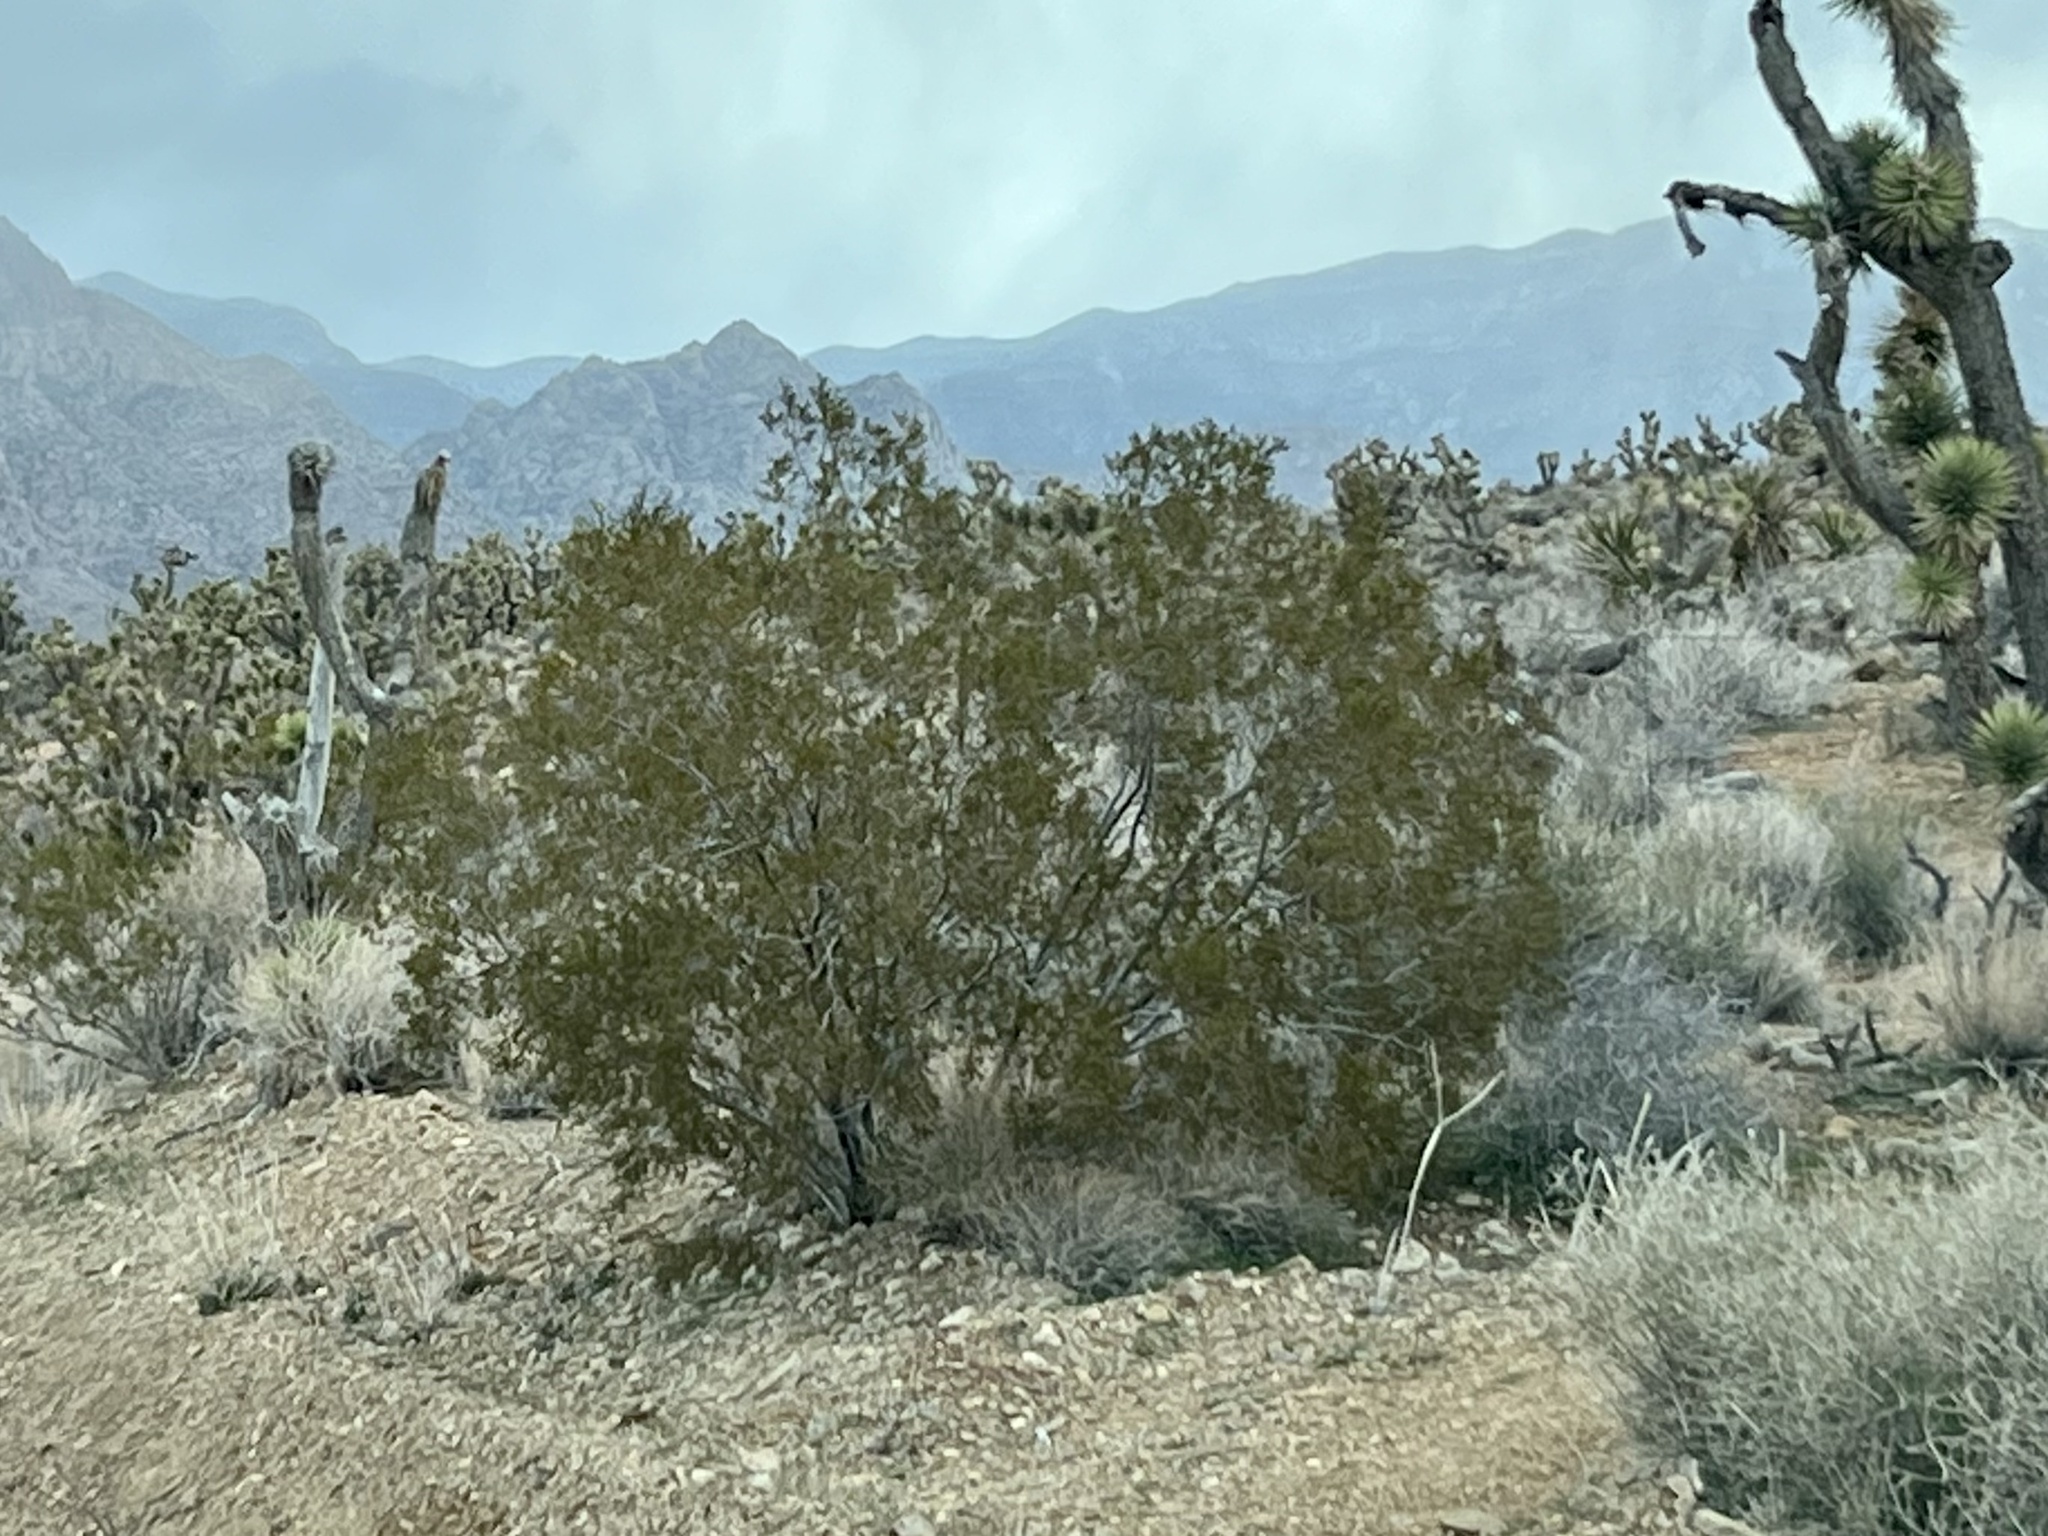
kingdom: Plantae
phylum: Tracheophyta
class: Magnoliopsida
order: Zygophyllales
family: Zygophyllaceae
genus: Larrea
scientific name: Larrea tridentata
